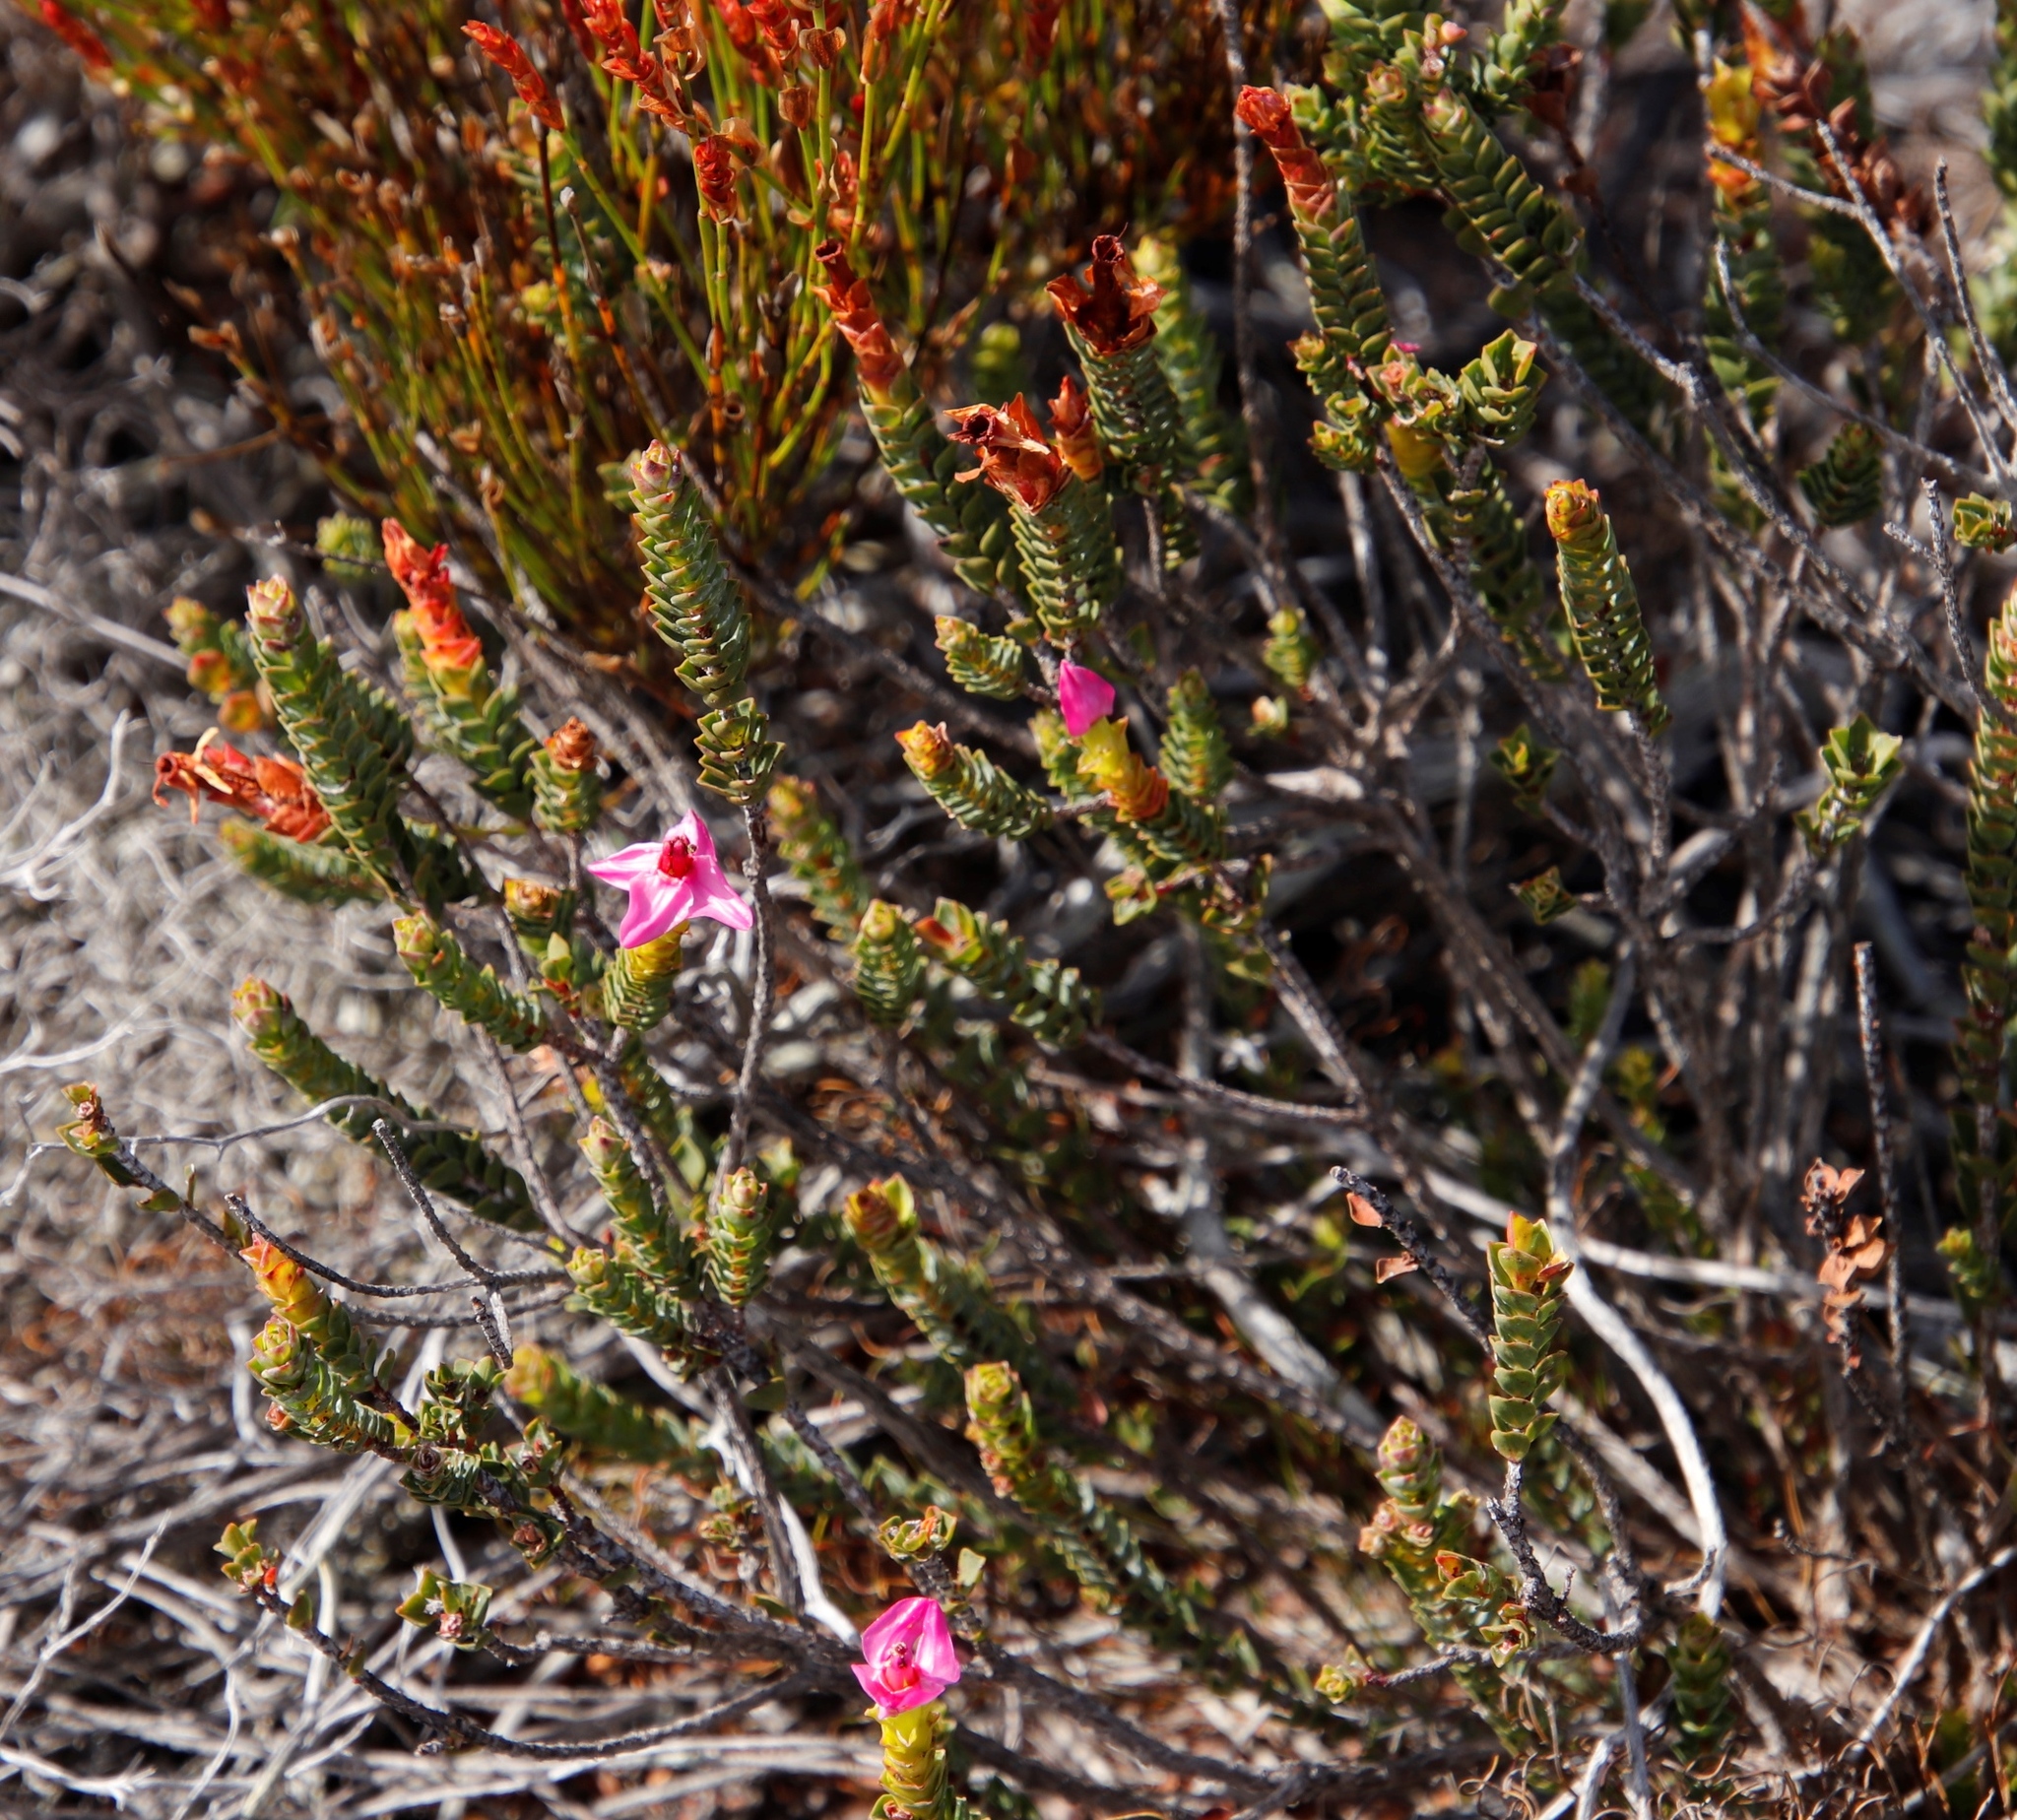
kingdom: Plantae
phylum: Tracheophyta
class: Magnoliopsida
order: Myrtales
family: Penaeaceae
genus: Saltera
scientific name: Saltera sarcocolla
